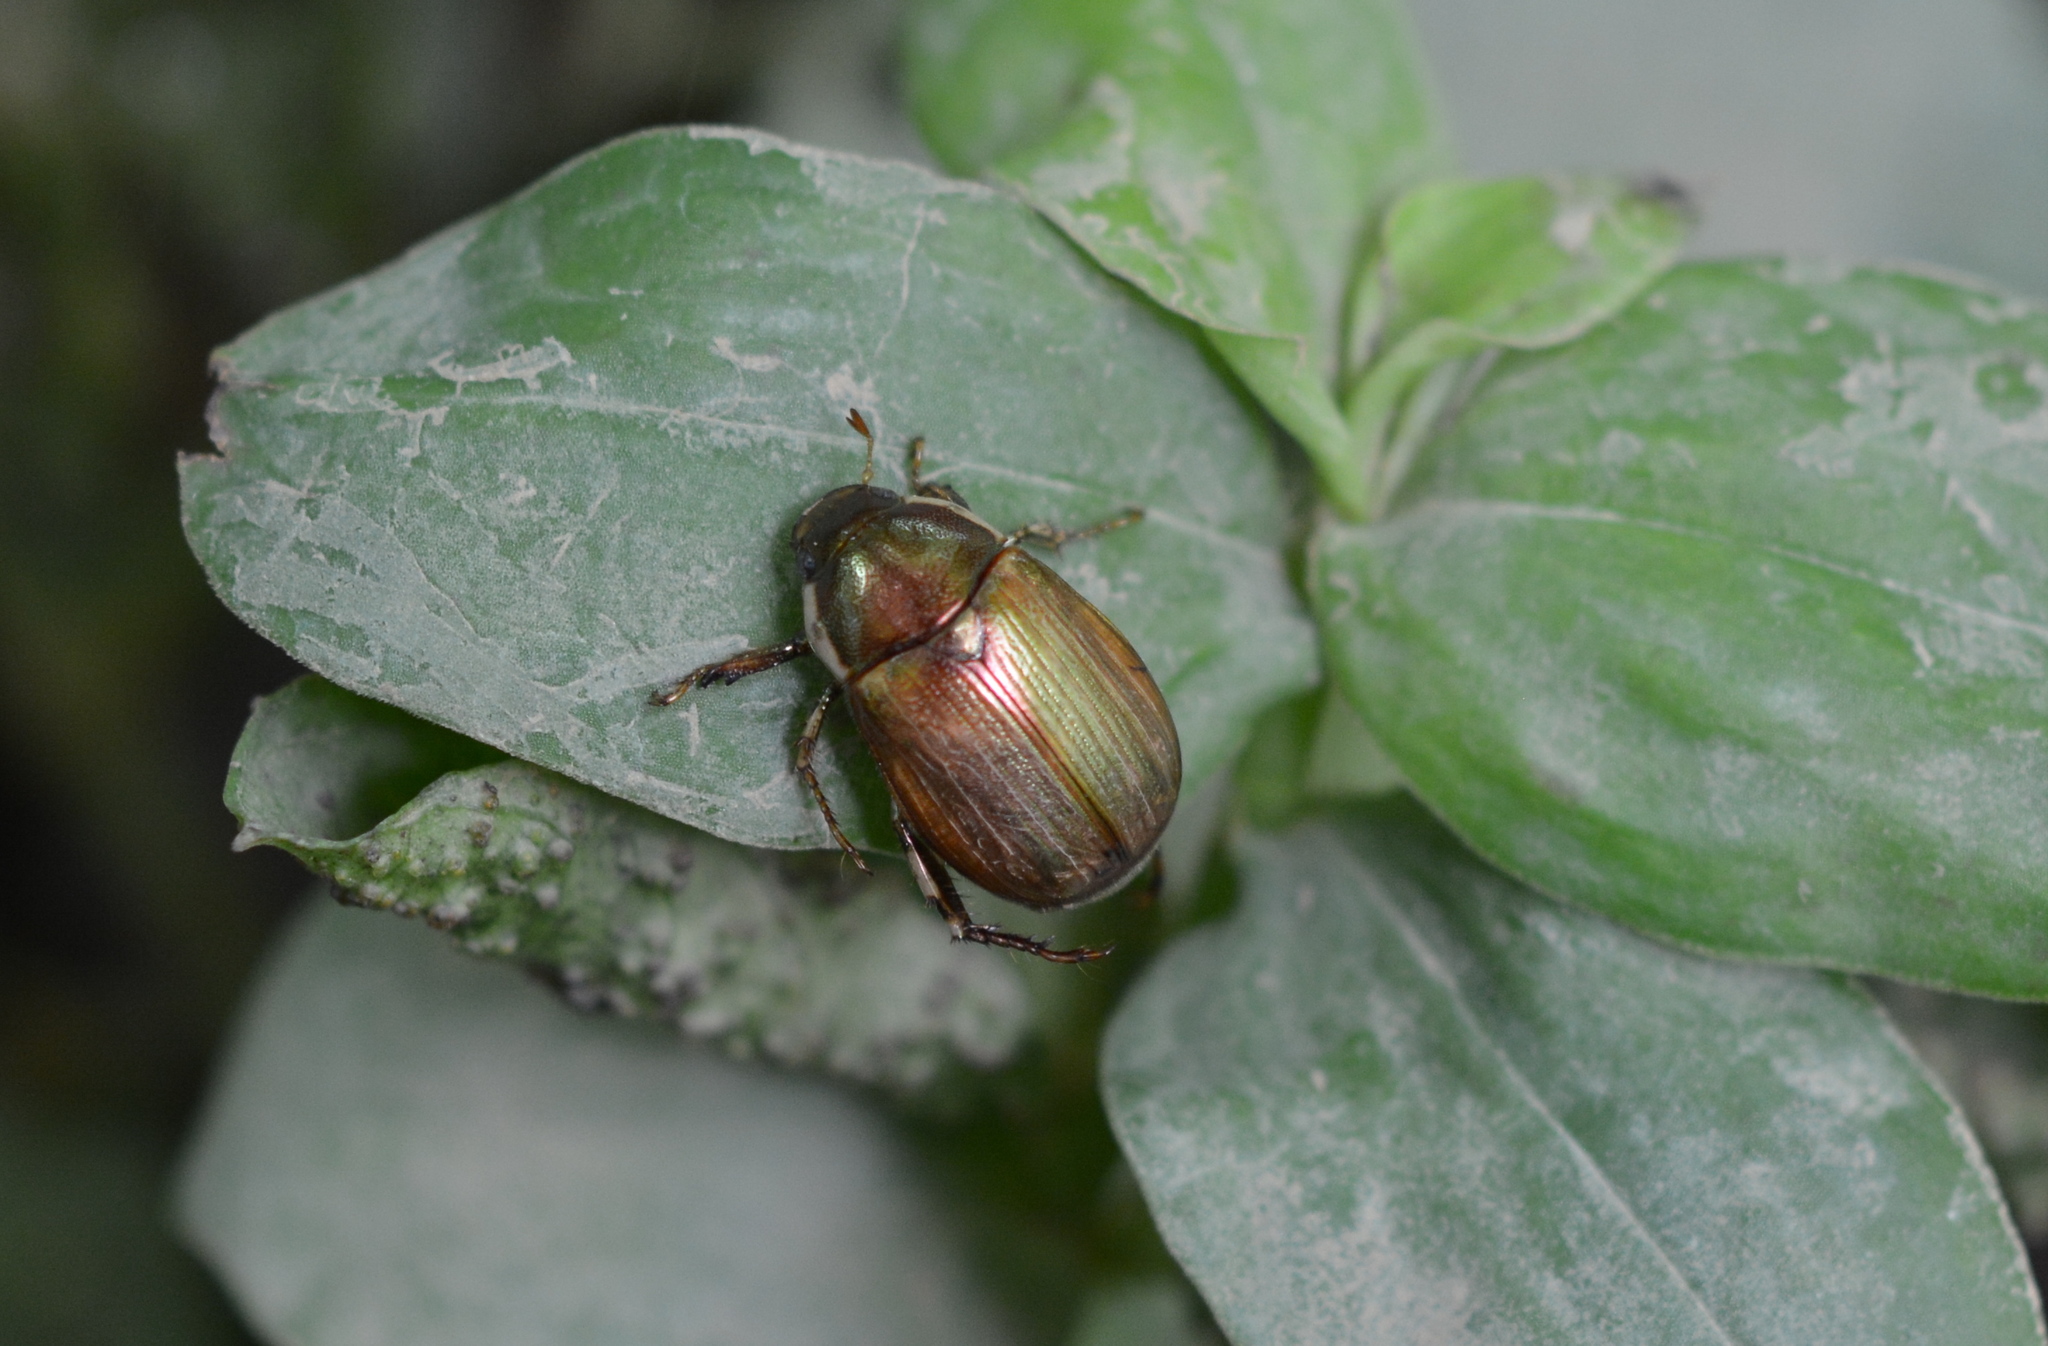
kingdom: Animalia
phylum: Arthropoda
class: Insecta
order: Coleoptera
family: Scarabaeidae
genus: Callistethus
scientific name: Callistethus marginatus
